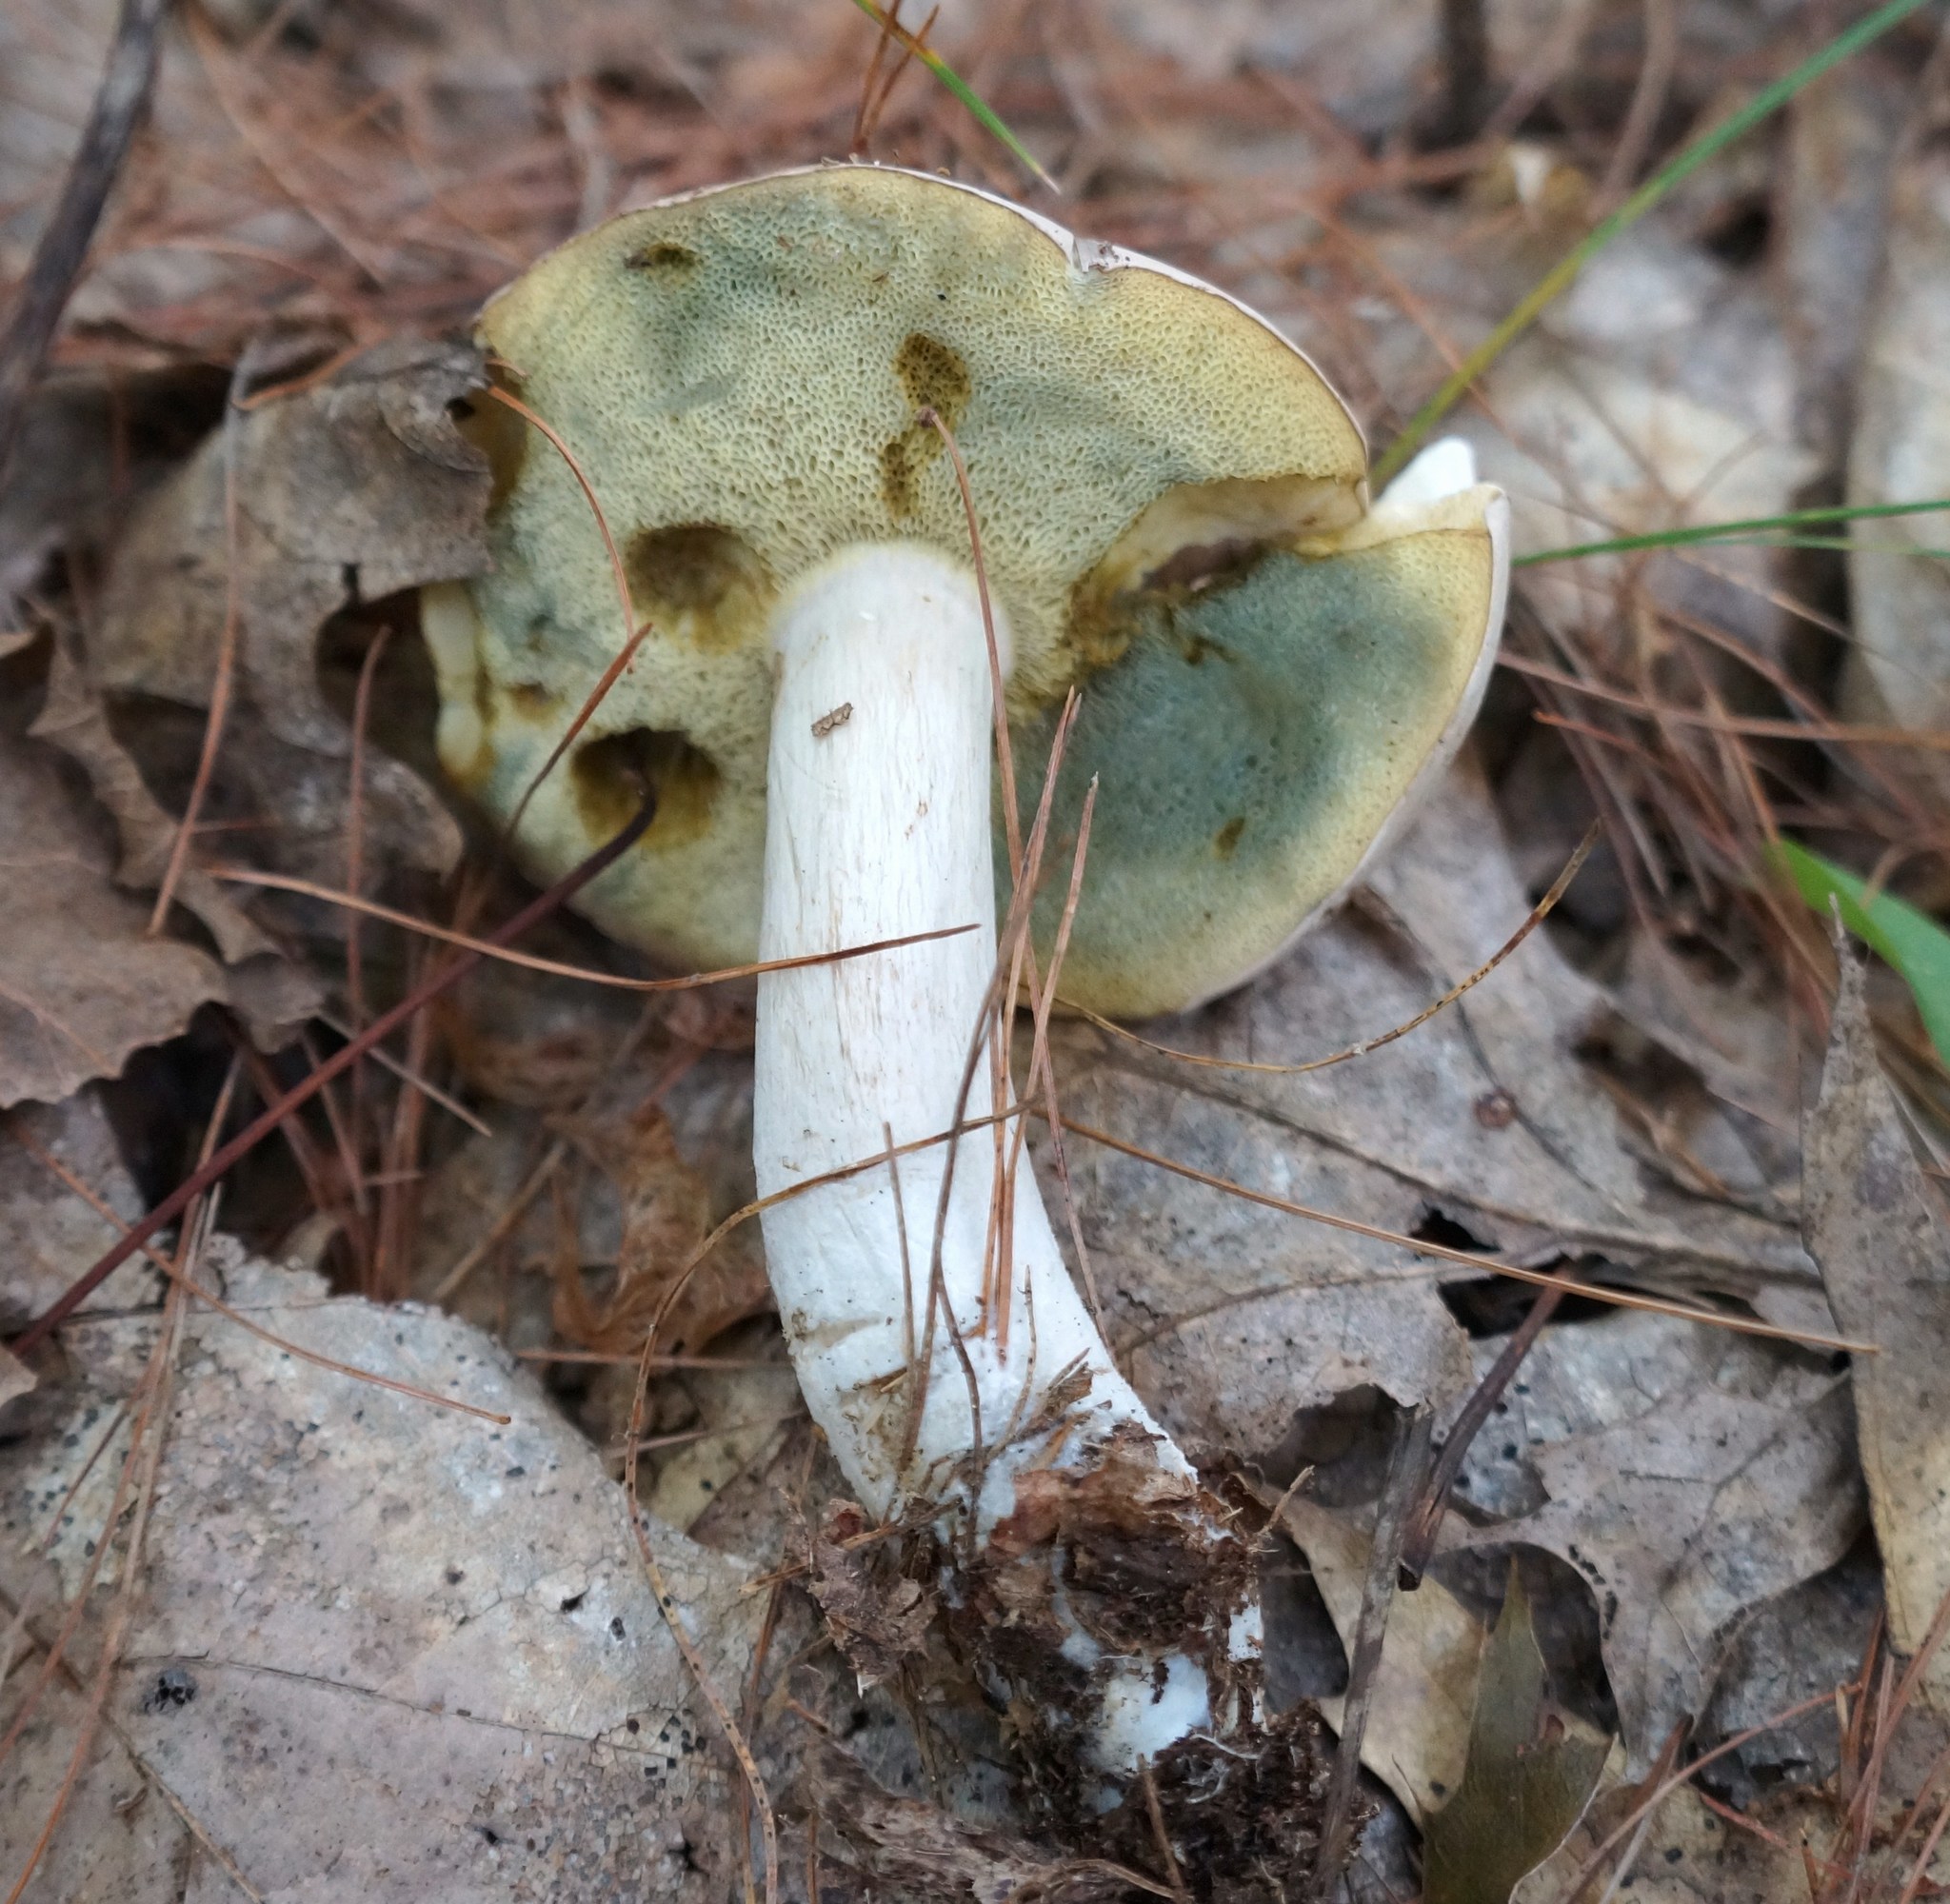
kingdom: Fungi
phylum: Basidiomycota
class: Agaricomycetes
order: Boletales
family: Boletaceae
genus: Imleria
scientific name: Imleria pallida
